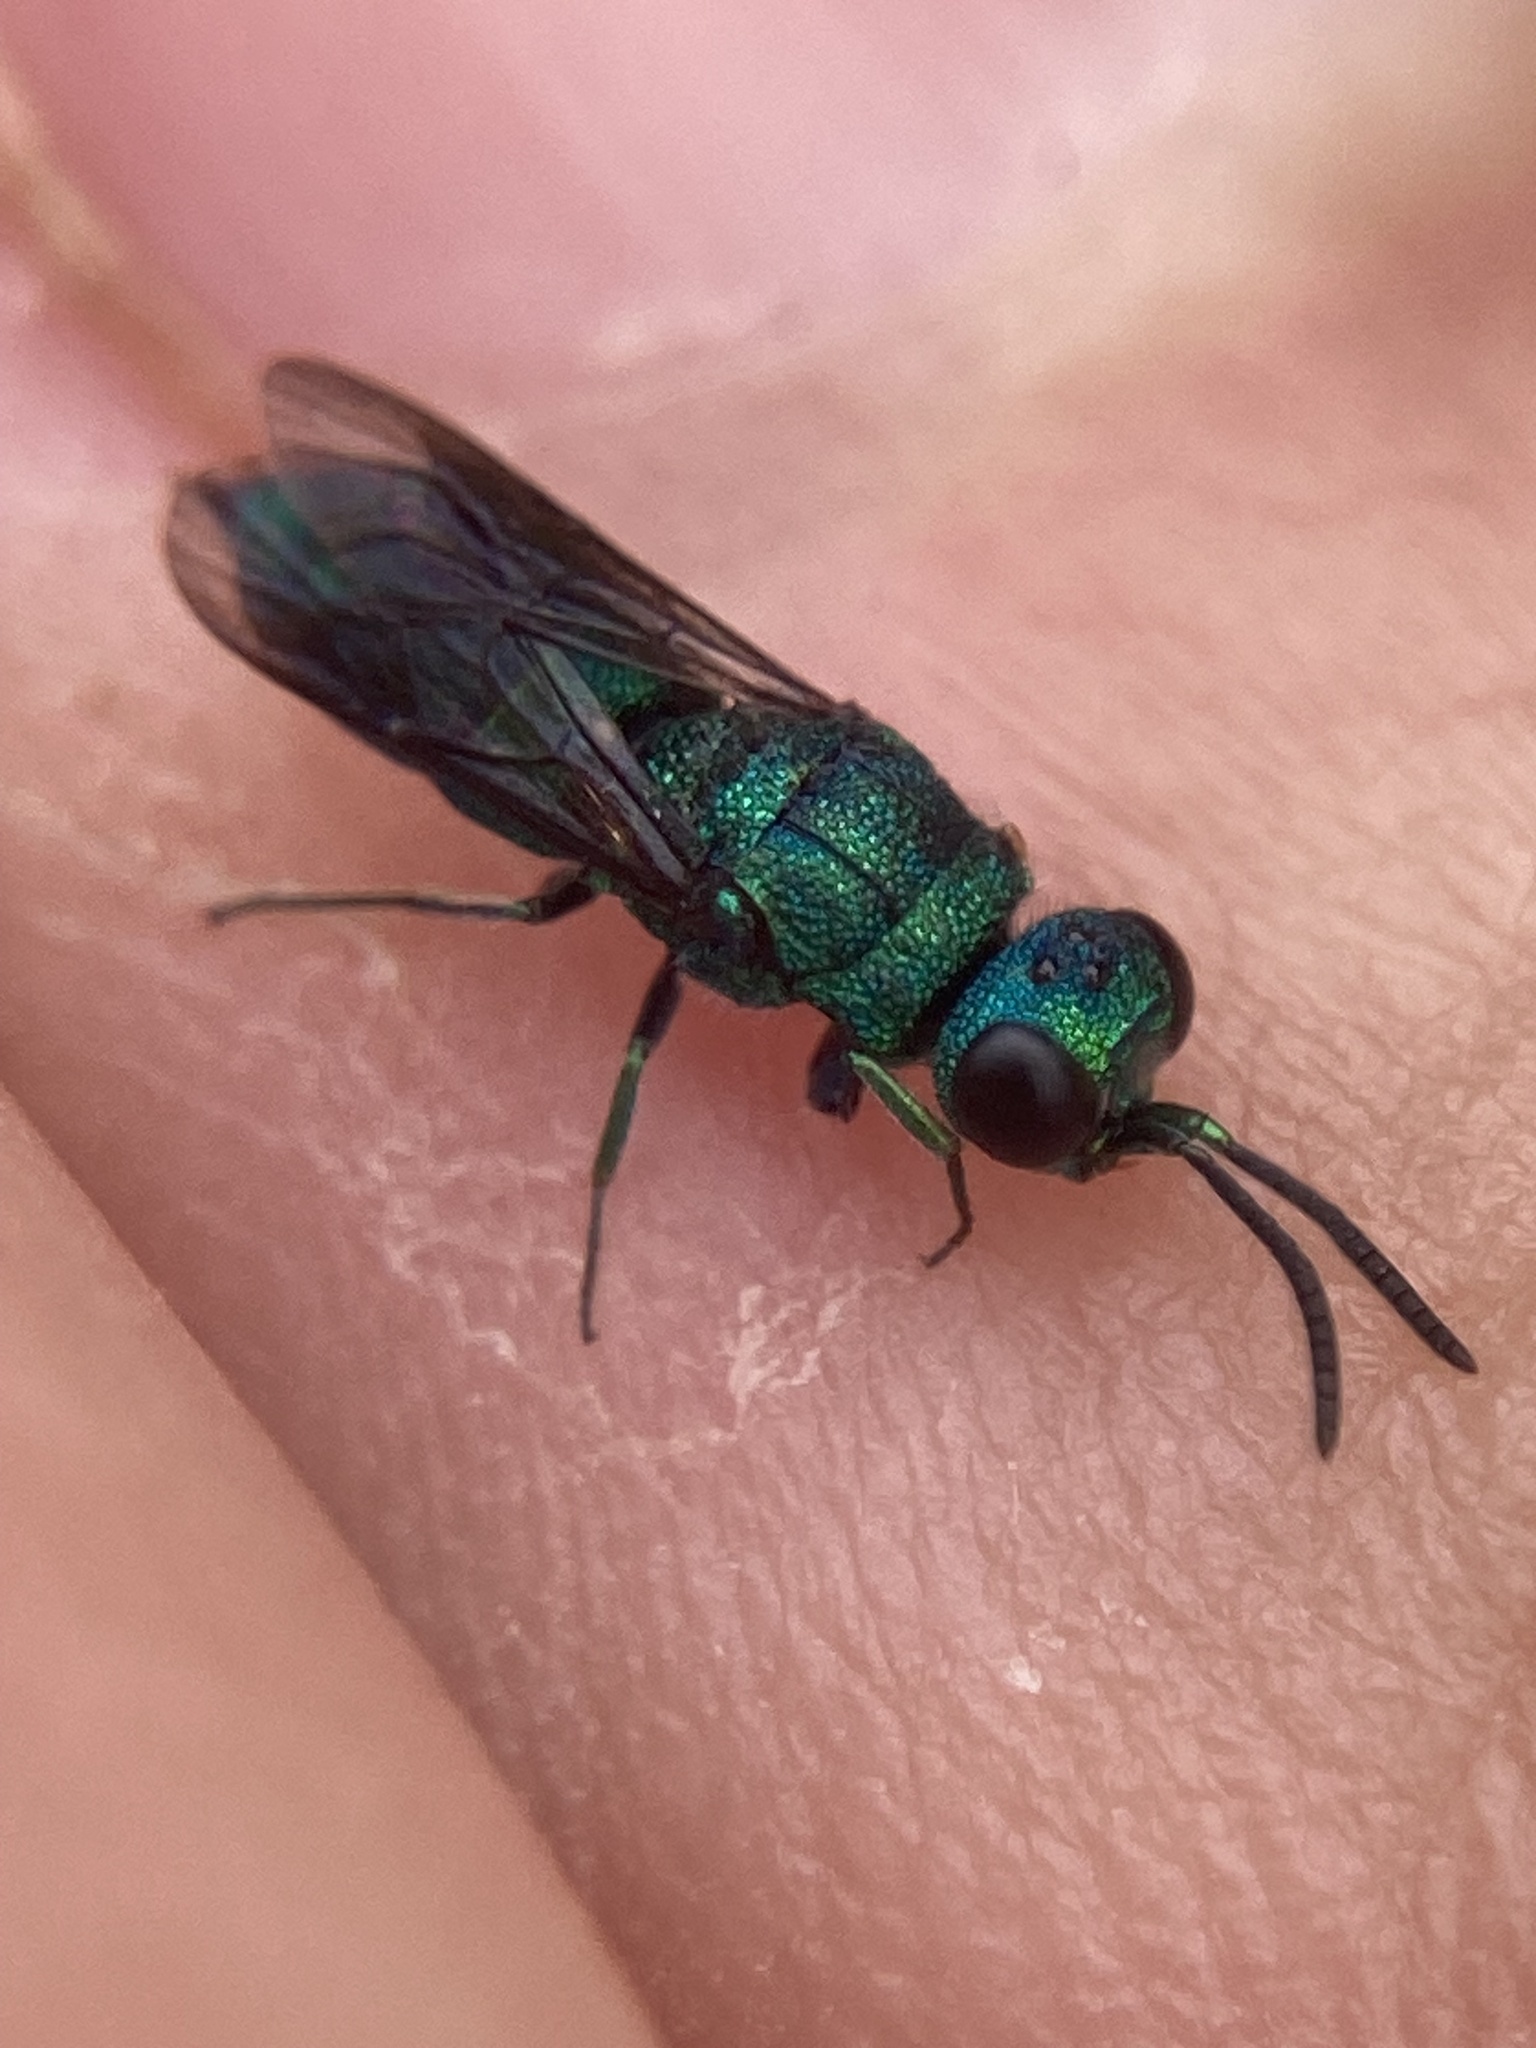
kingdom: Animalia
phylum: Arthropoda
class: Insecta
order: Hymenoptera
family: Chrysididae
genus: Primeuchroeus
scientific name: Primeuchroeus
